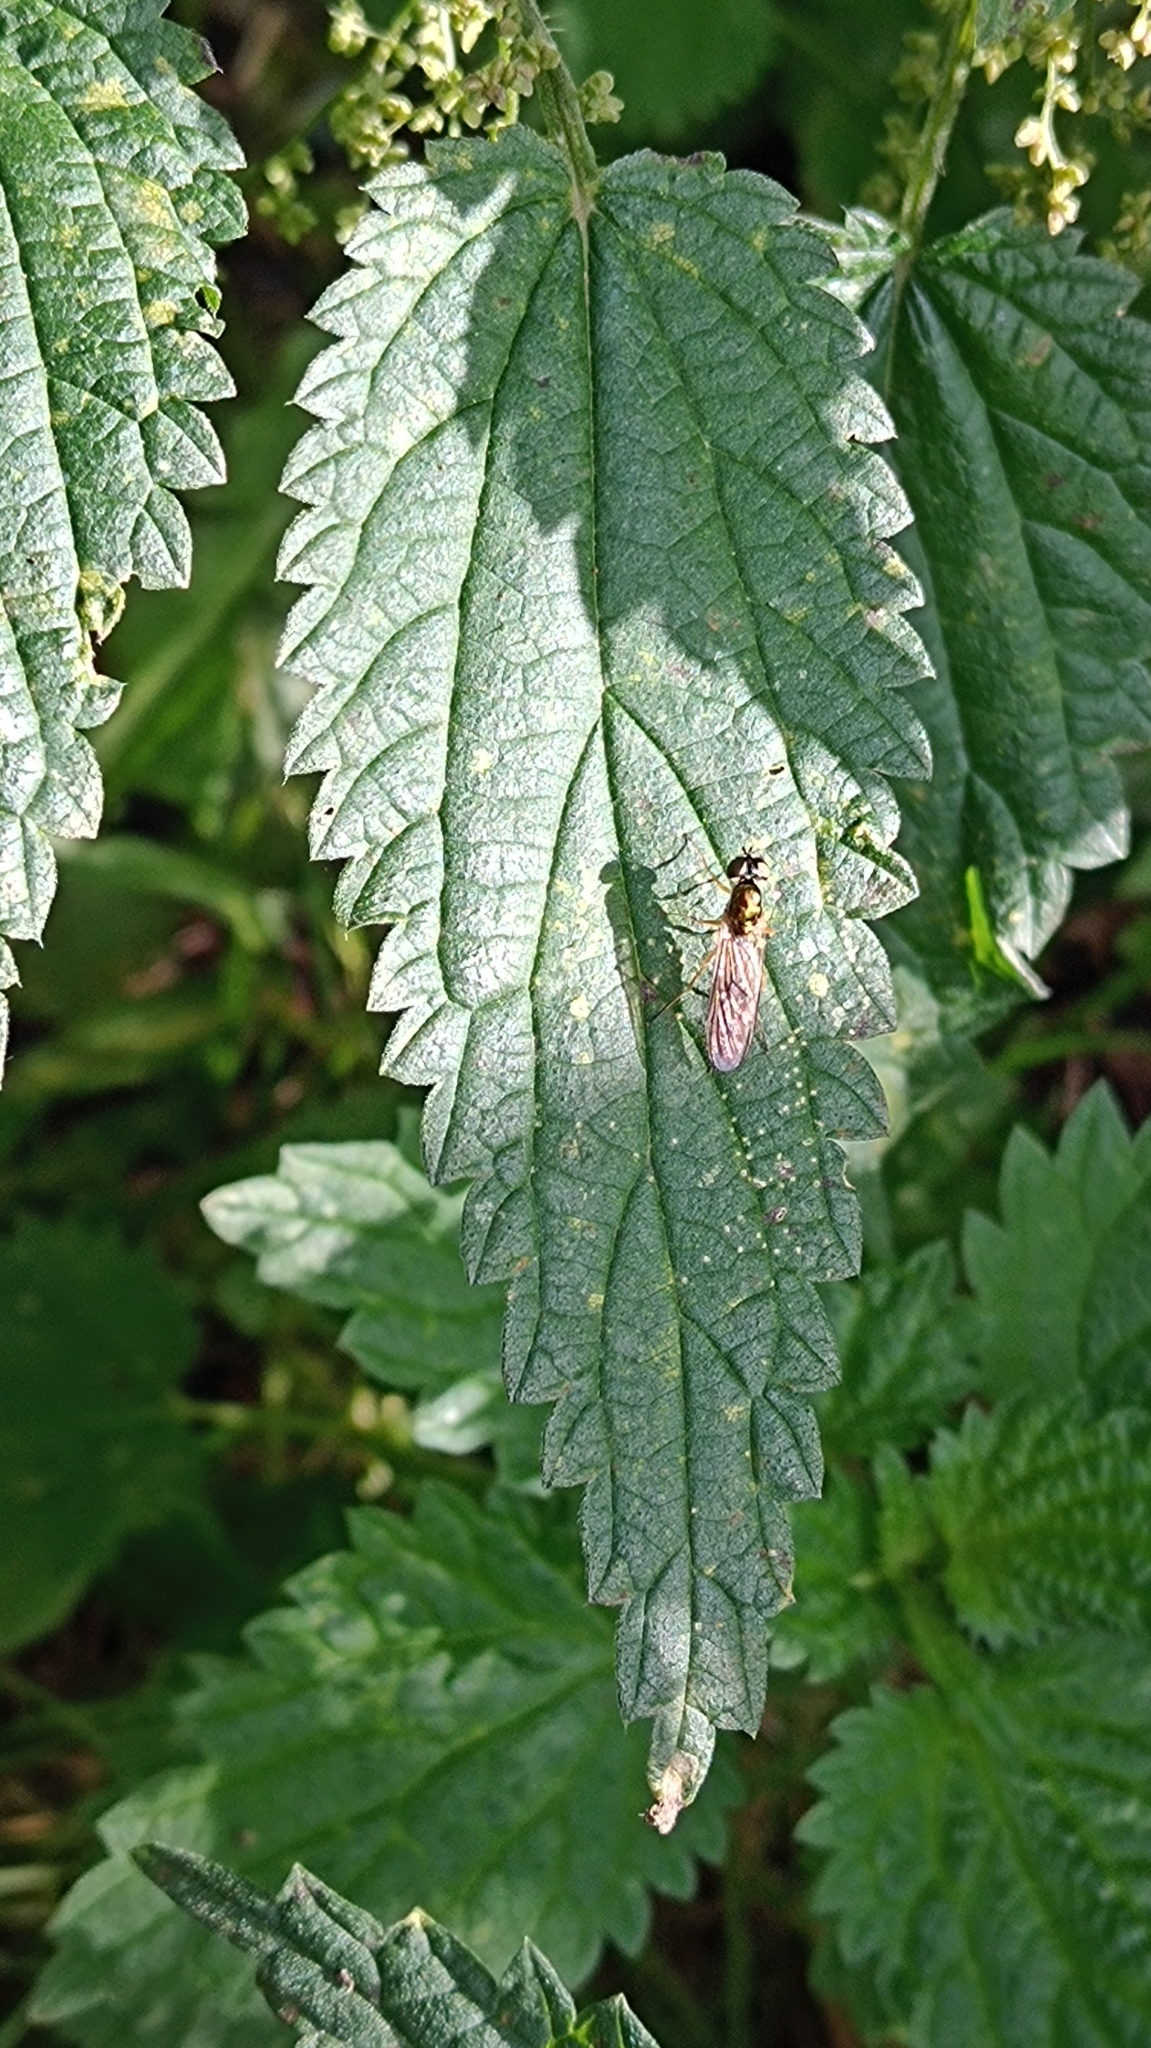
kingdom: Animalia
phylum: Arthropoda
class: Insecta
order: Diptera
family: Stratiomyidae
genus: Sargus
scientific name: Sargus bipunctatus
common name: Twin-spot centurion
